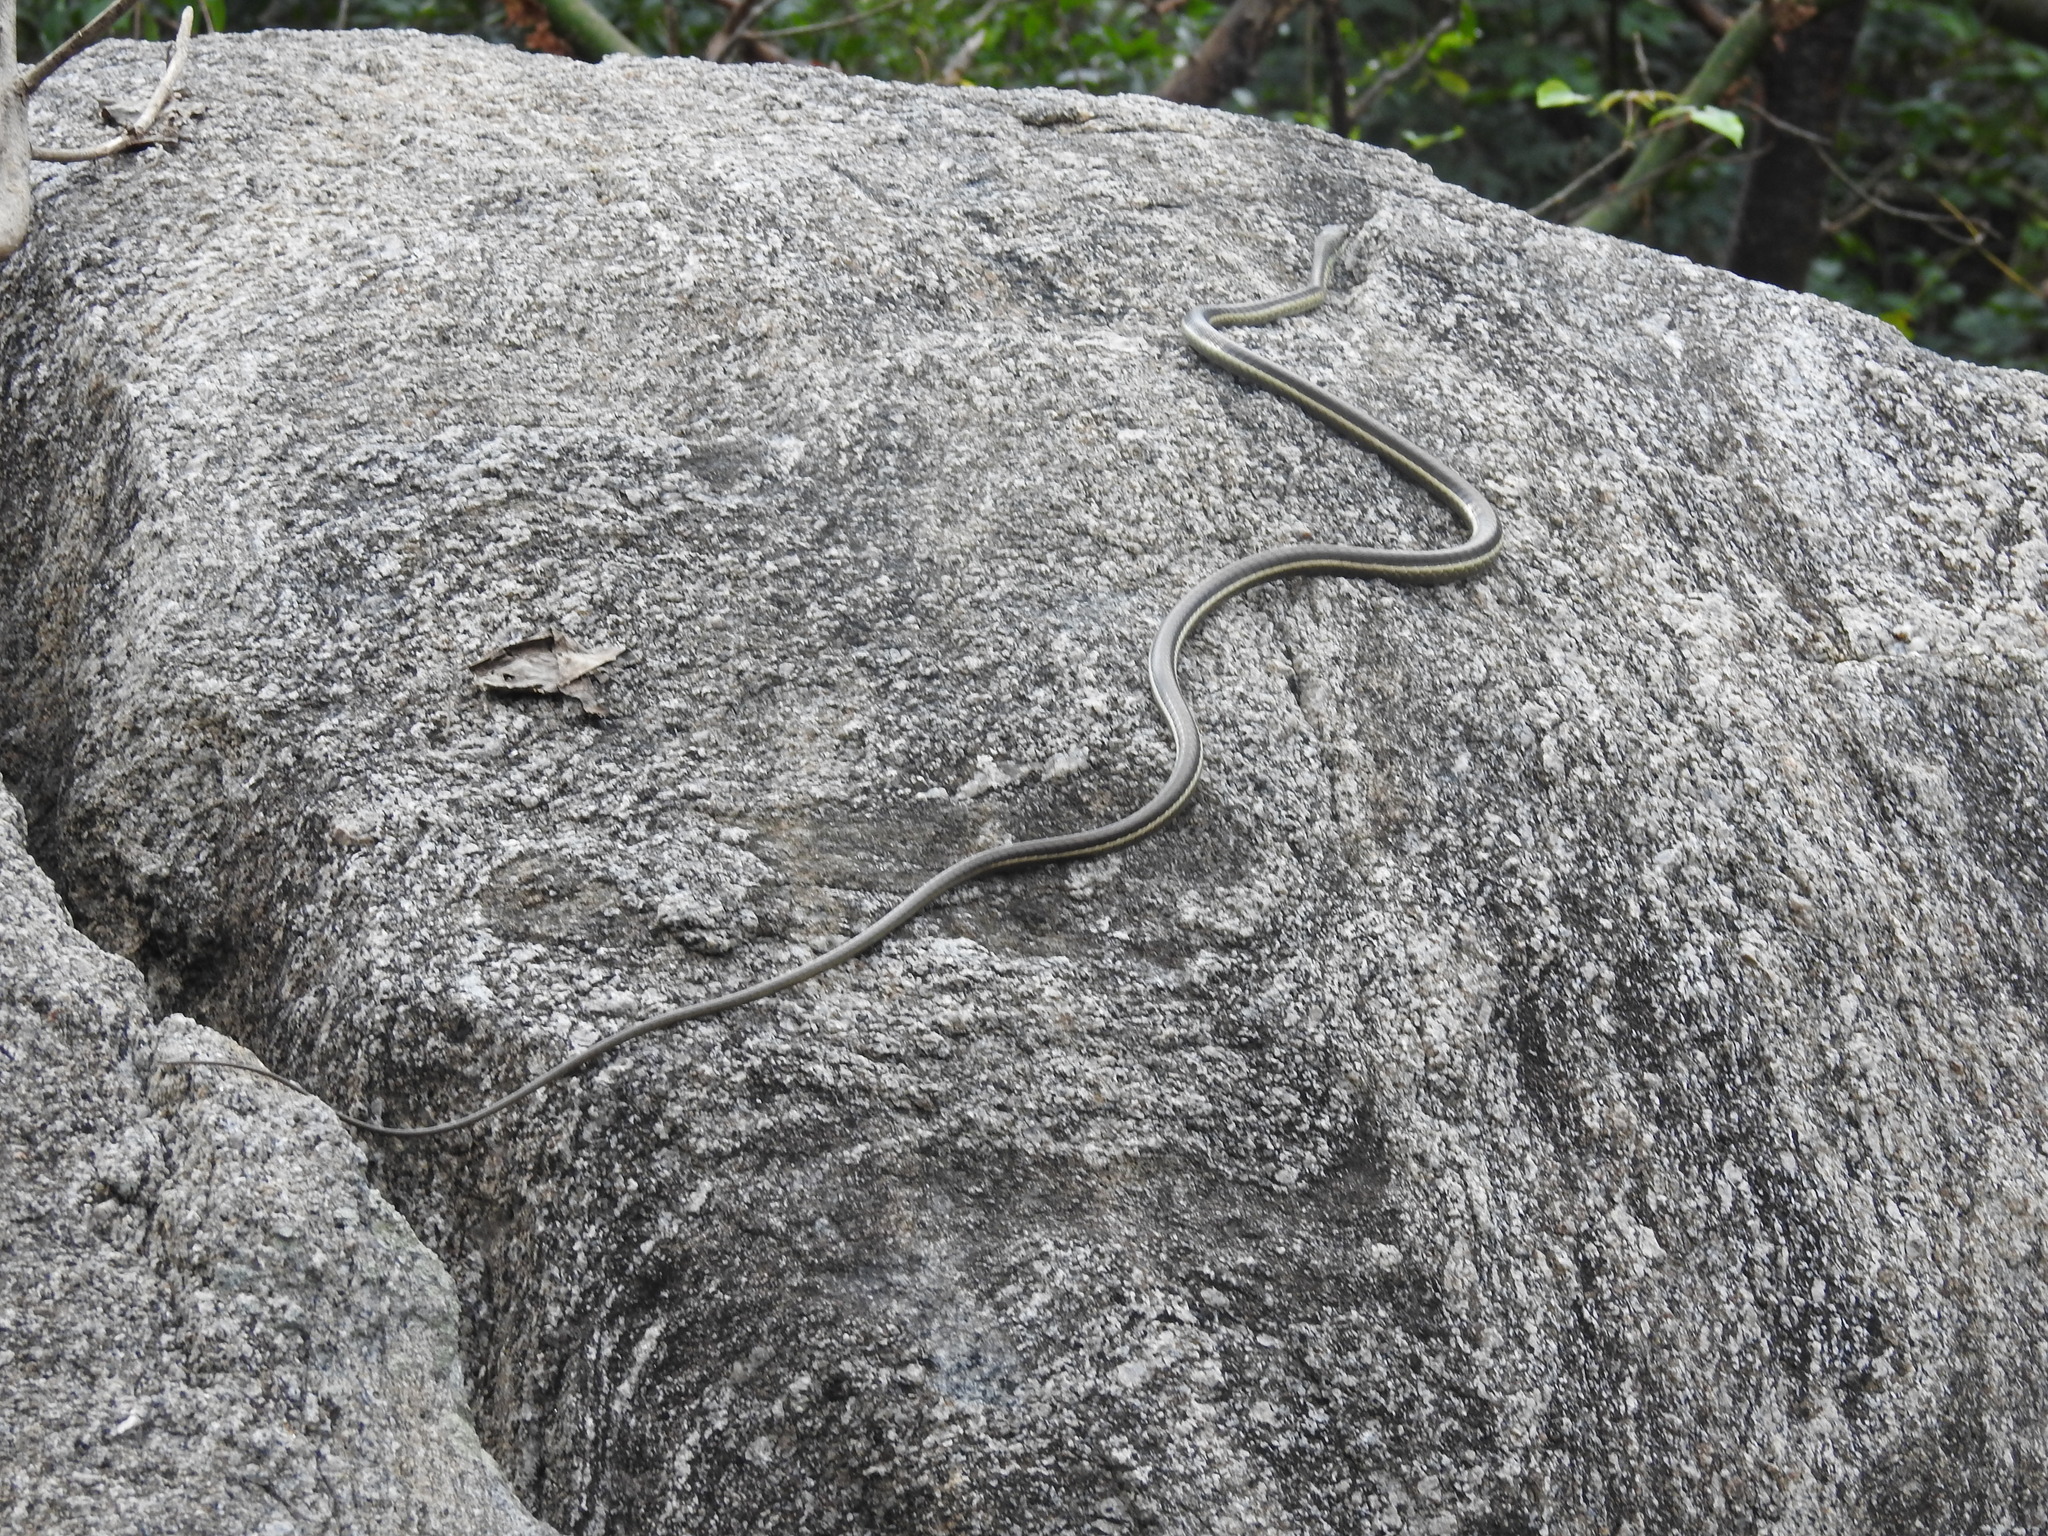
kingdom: Animalia
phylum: Chordata
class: Squamata
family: Colubridae
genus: Dendrelaphis
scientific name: Dendrelaphis tristis
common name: Daudin's bronzeback
